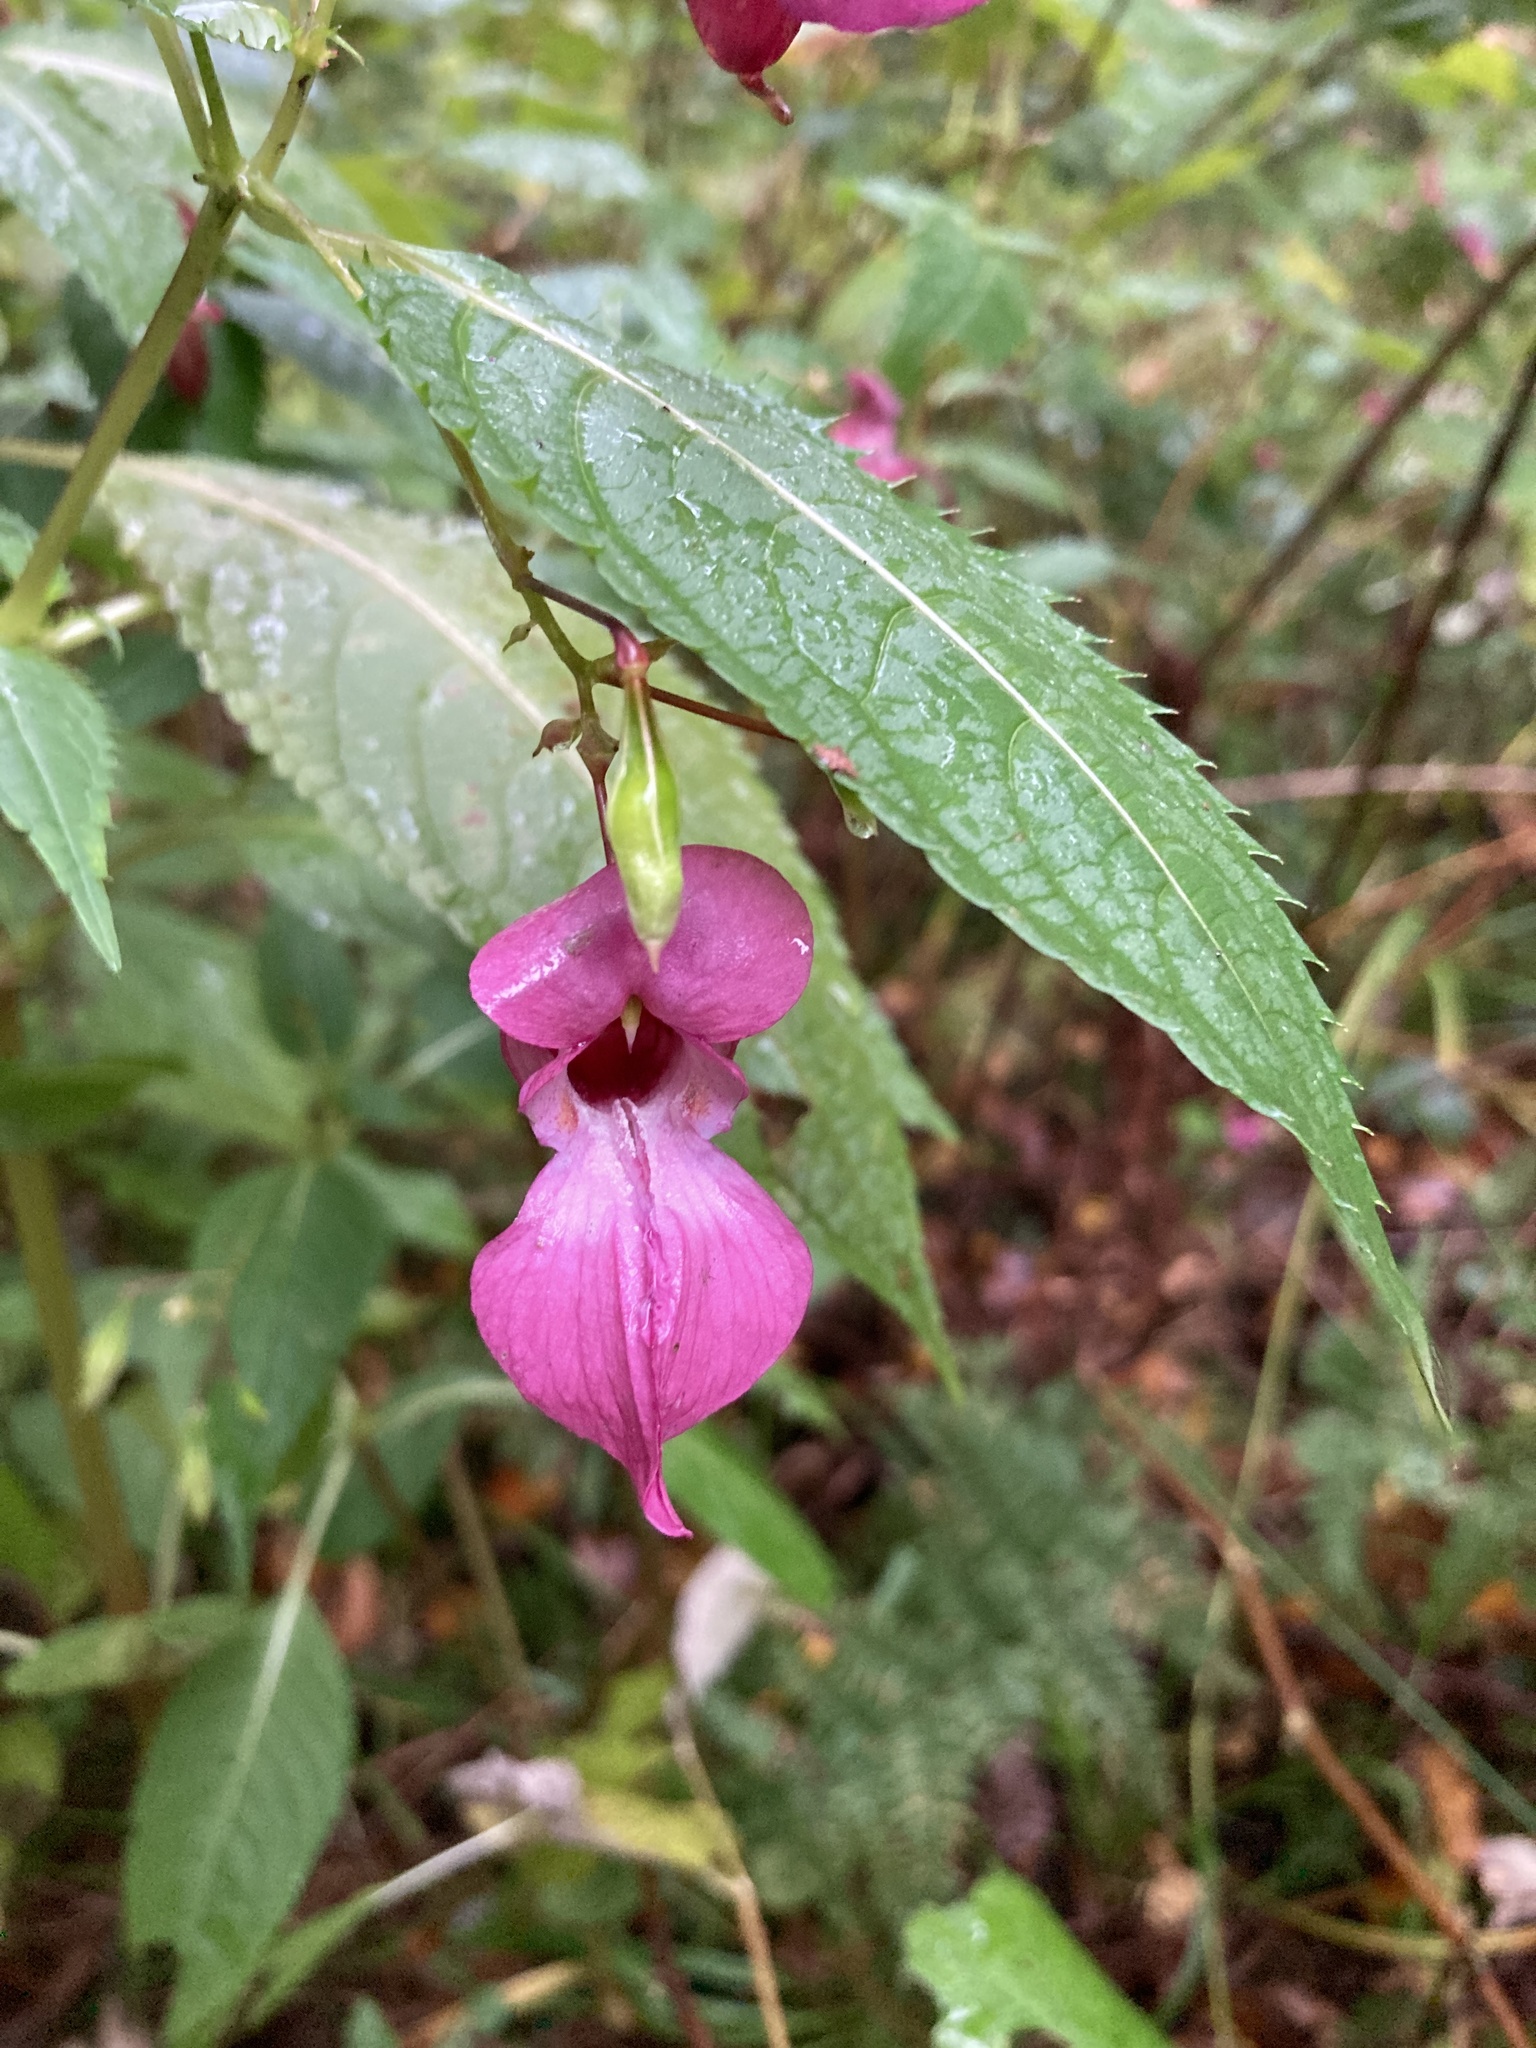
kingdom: Plantae
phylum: Tracheophyta
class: Magnoliopsida
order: Ericales
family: Balsaminaceae
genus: Impatiens
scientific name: Impatiens glandulifera
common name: Himalayan balsam
